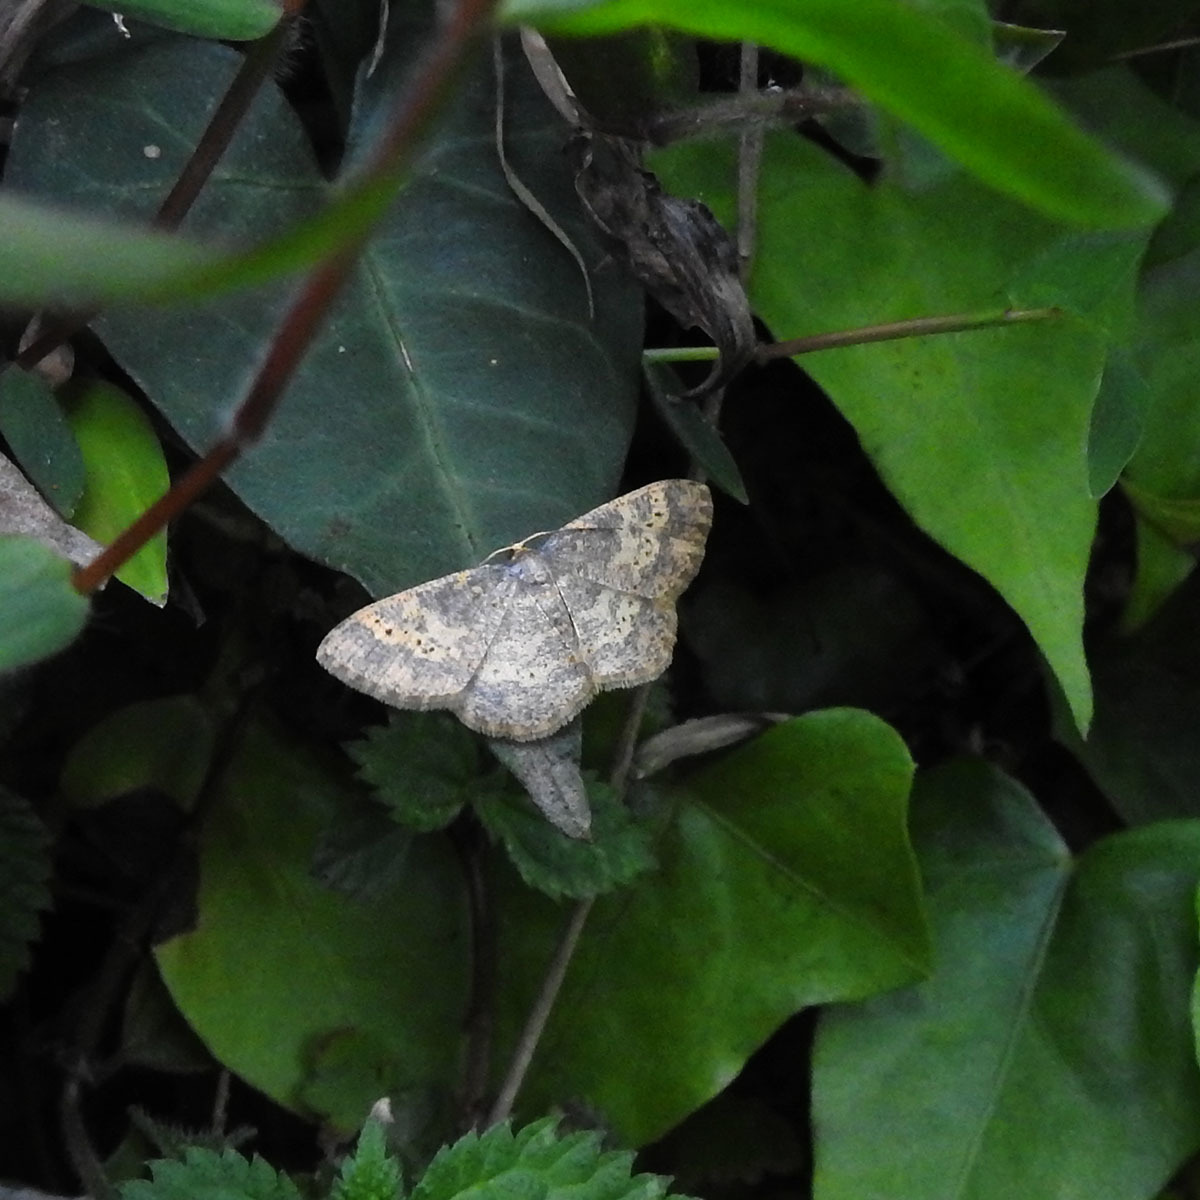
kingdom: Animalia
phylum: Arthropoda
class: Insecta
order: Lepidoptera
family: Geometridae
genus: Peratophyga
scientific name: Peratophyga hyalinata
